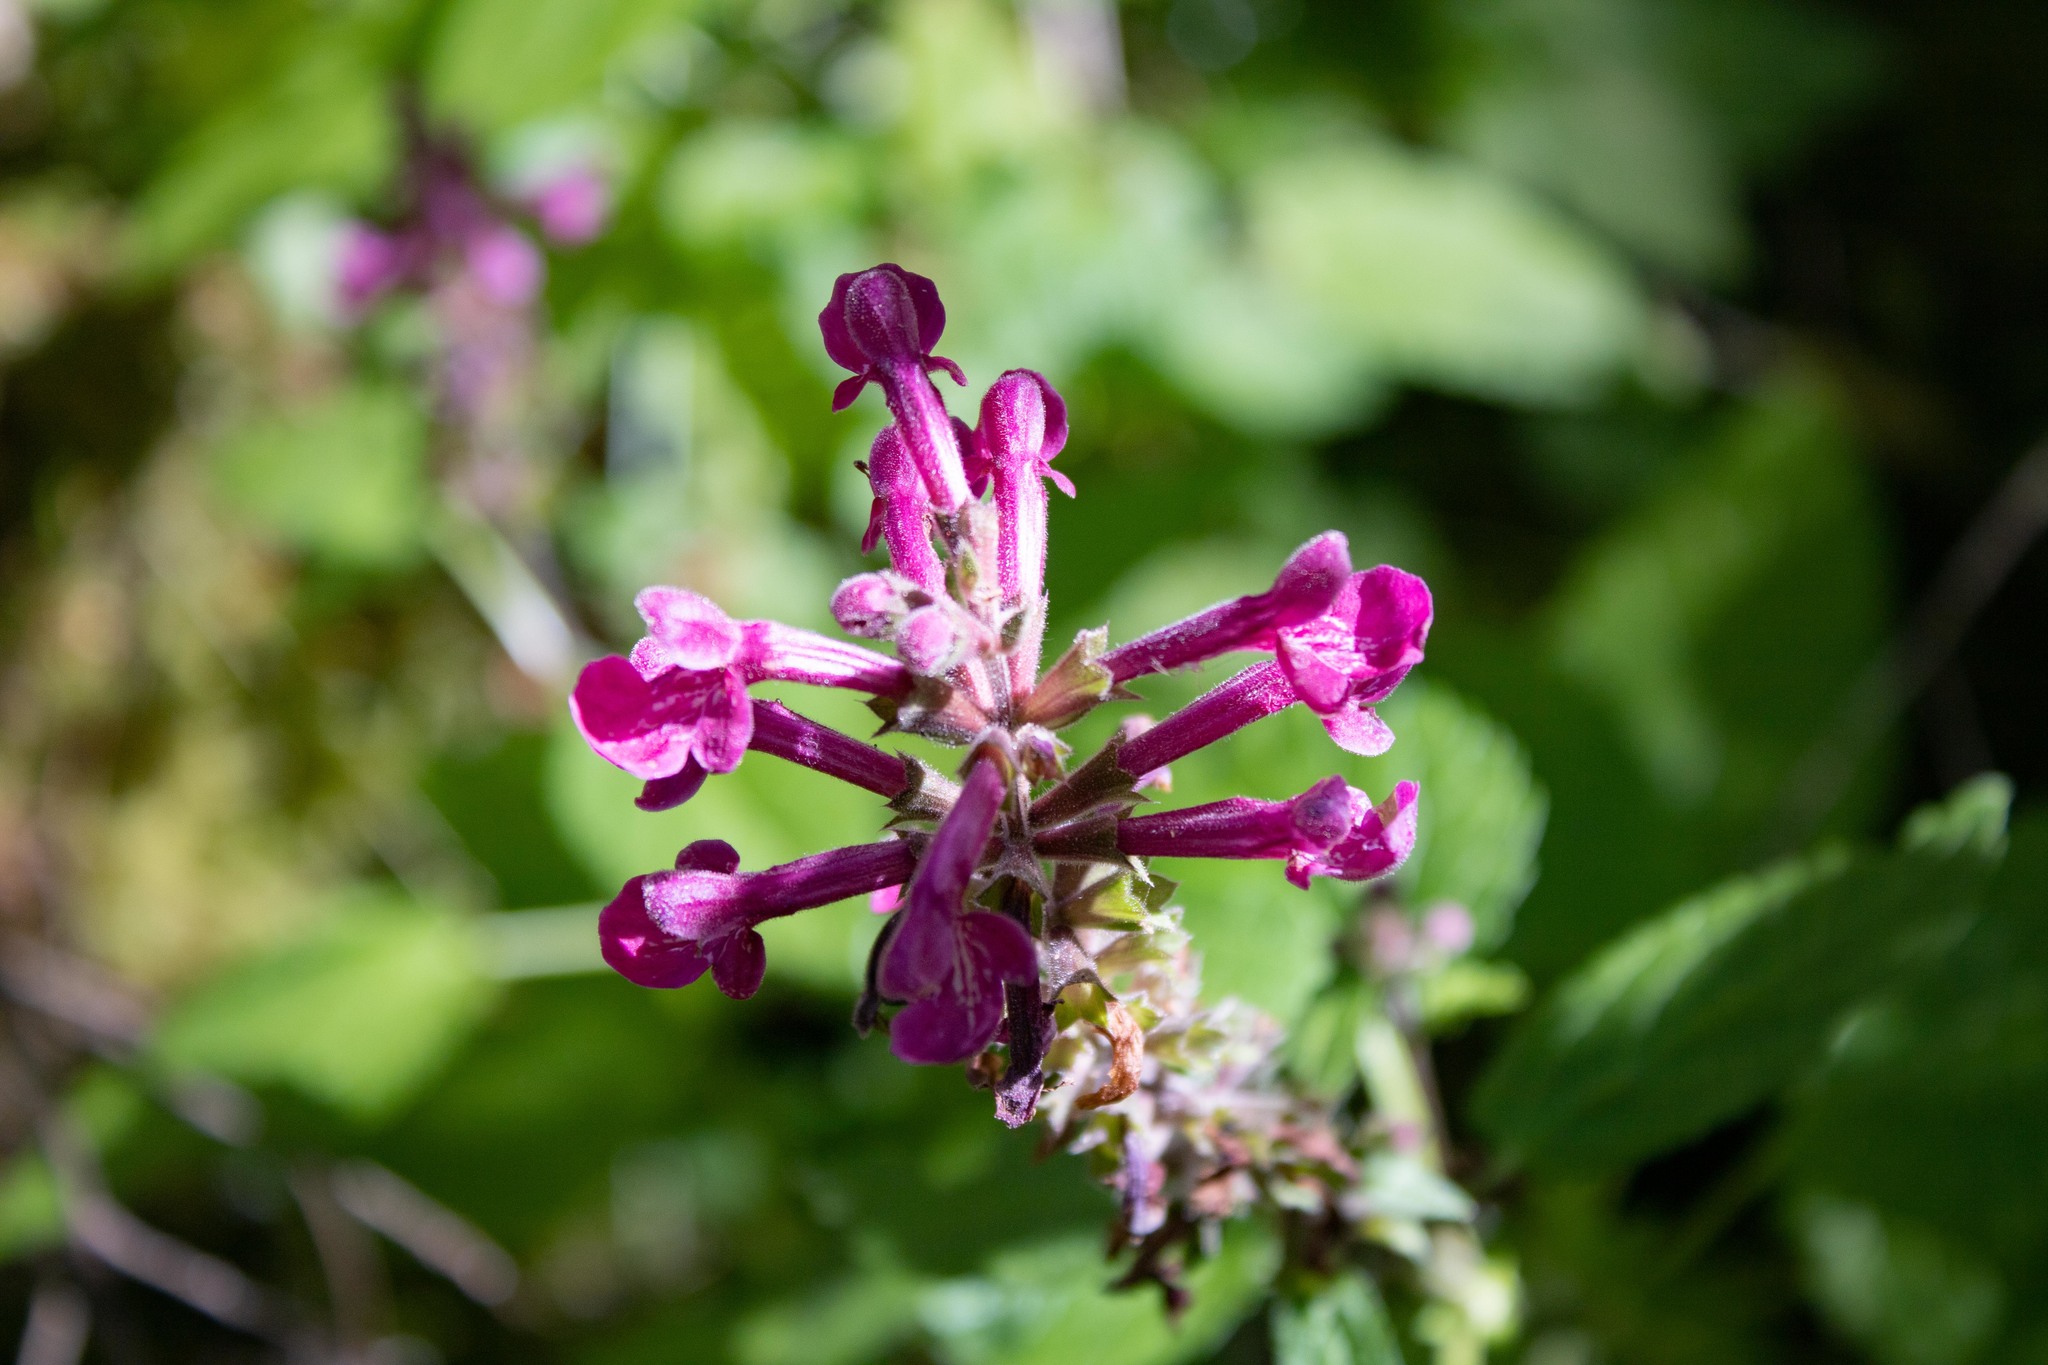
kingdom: Plantae
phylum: Tracheophyta
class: Magnoliopsida
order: Lamiales
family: Lamiaceae
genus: Stachys
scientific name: Stachys chamissonis
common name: Coastal hedge-nettle
